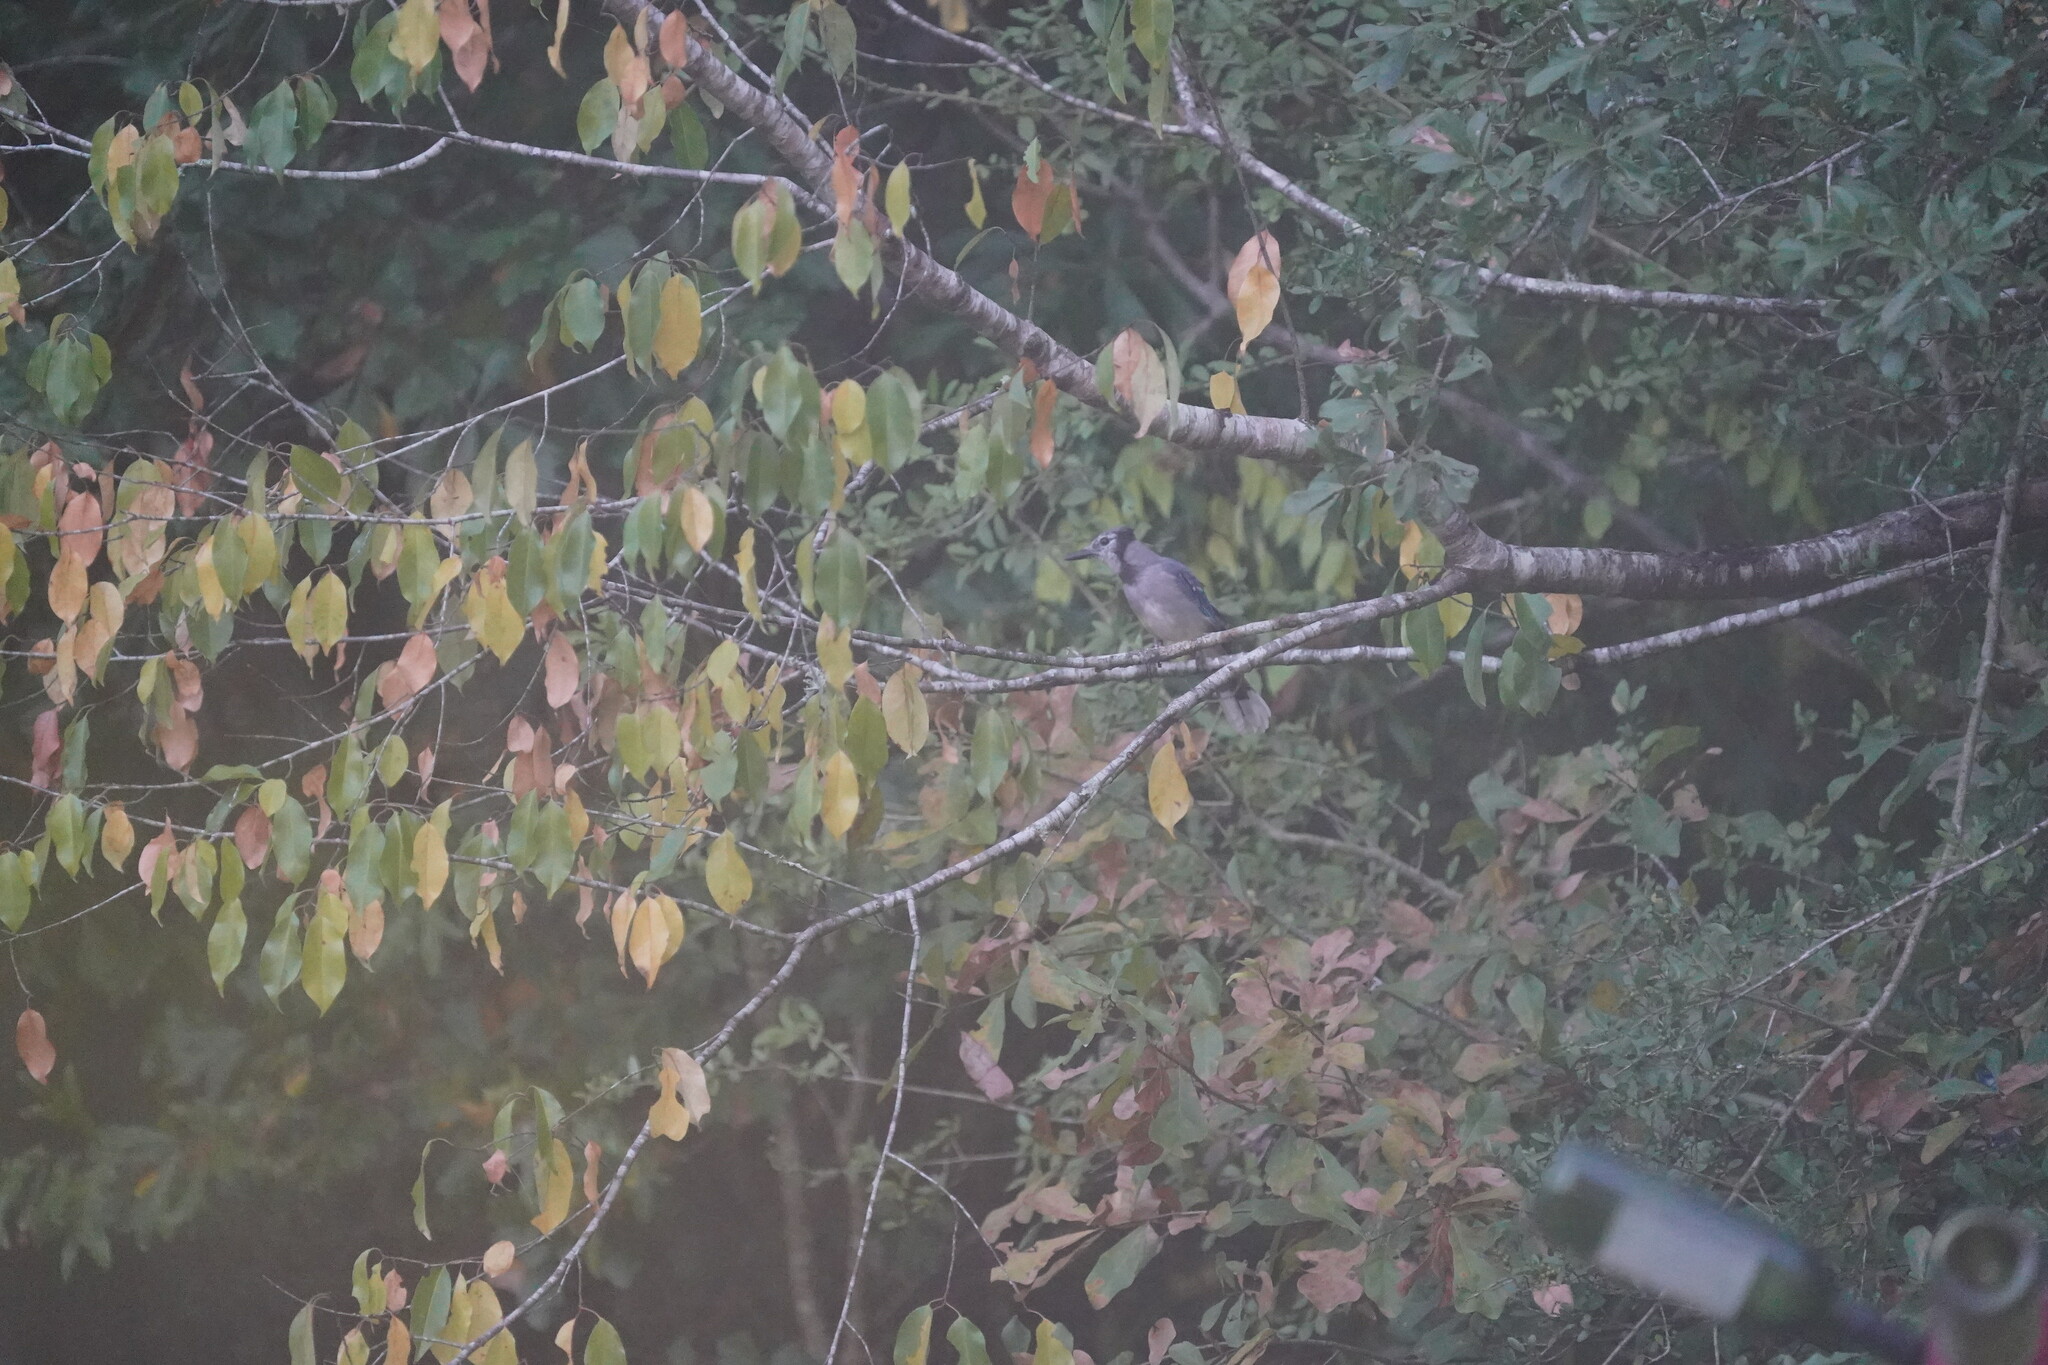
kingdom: Animalia
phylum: Chordata
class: Aves
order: Passeriformes
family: Corvidae
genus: Cyanocitta
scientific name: Cyanocitta cristata
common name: Blue jay
